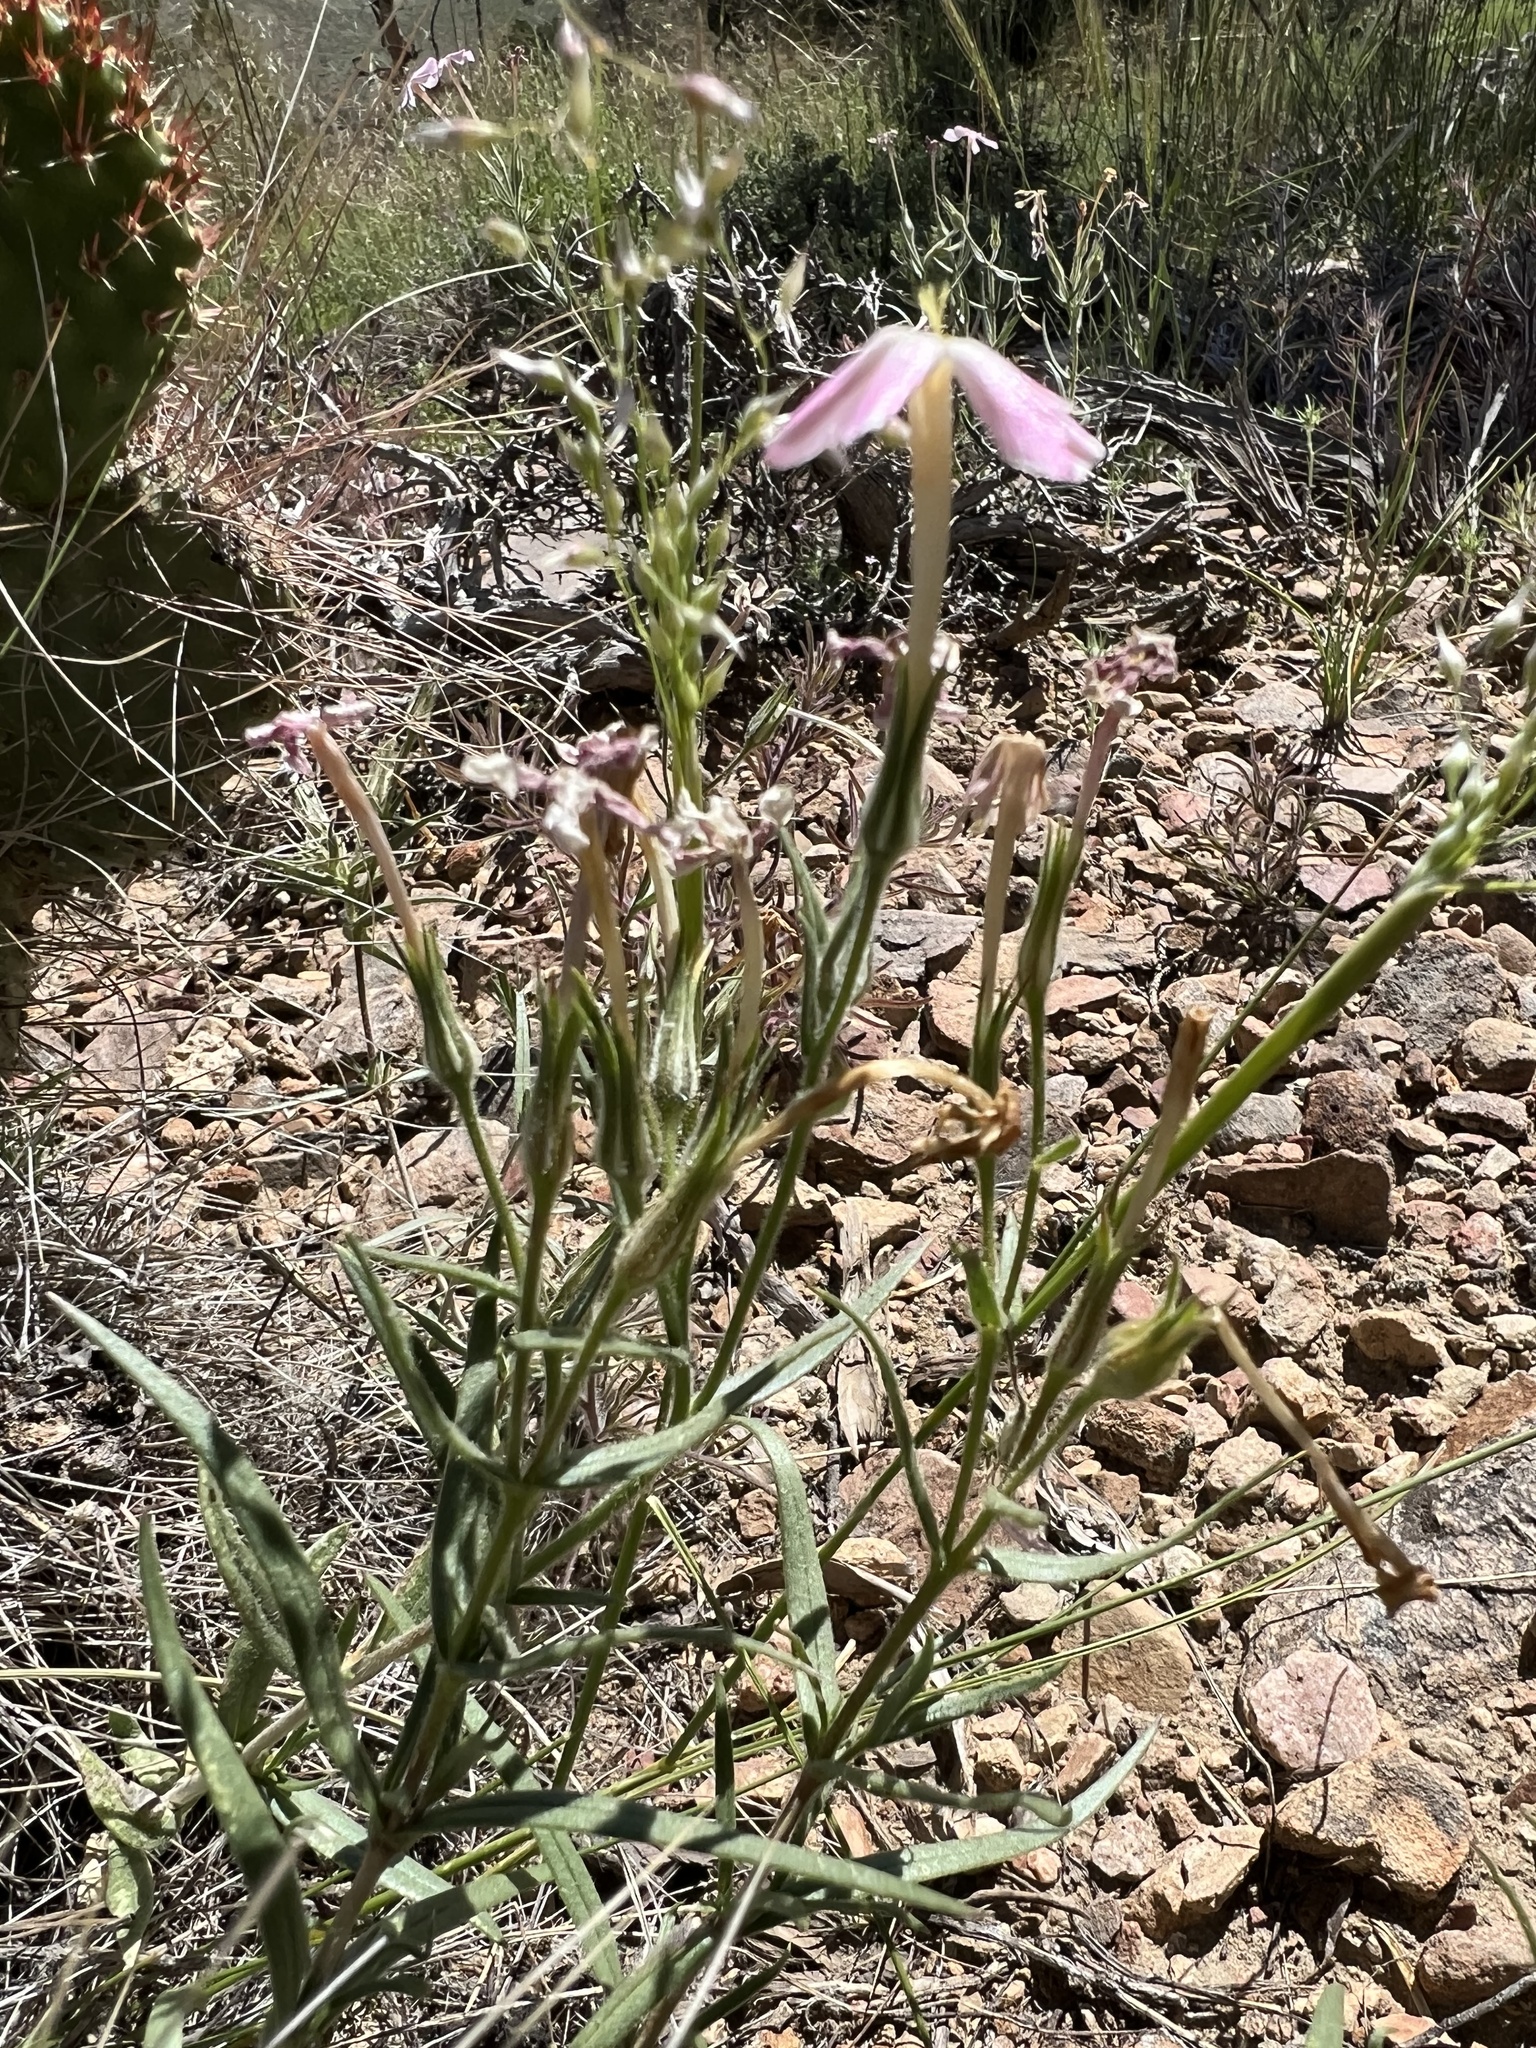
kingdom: Plantae
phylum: Tracheophyta
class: Magnoliopsida
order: Ericales
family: Polemoniaceae
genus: Phlox
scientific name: Phlox longifolia
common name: Longleaf phlox
